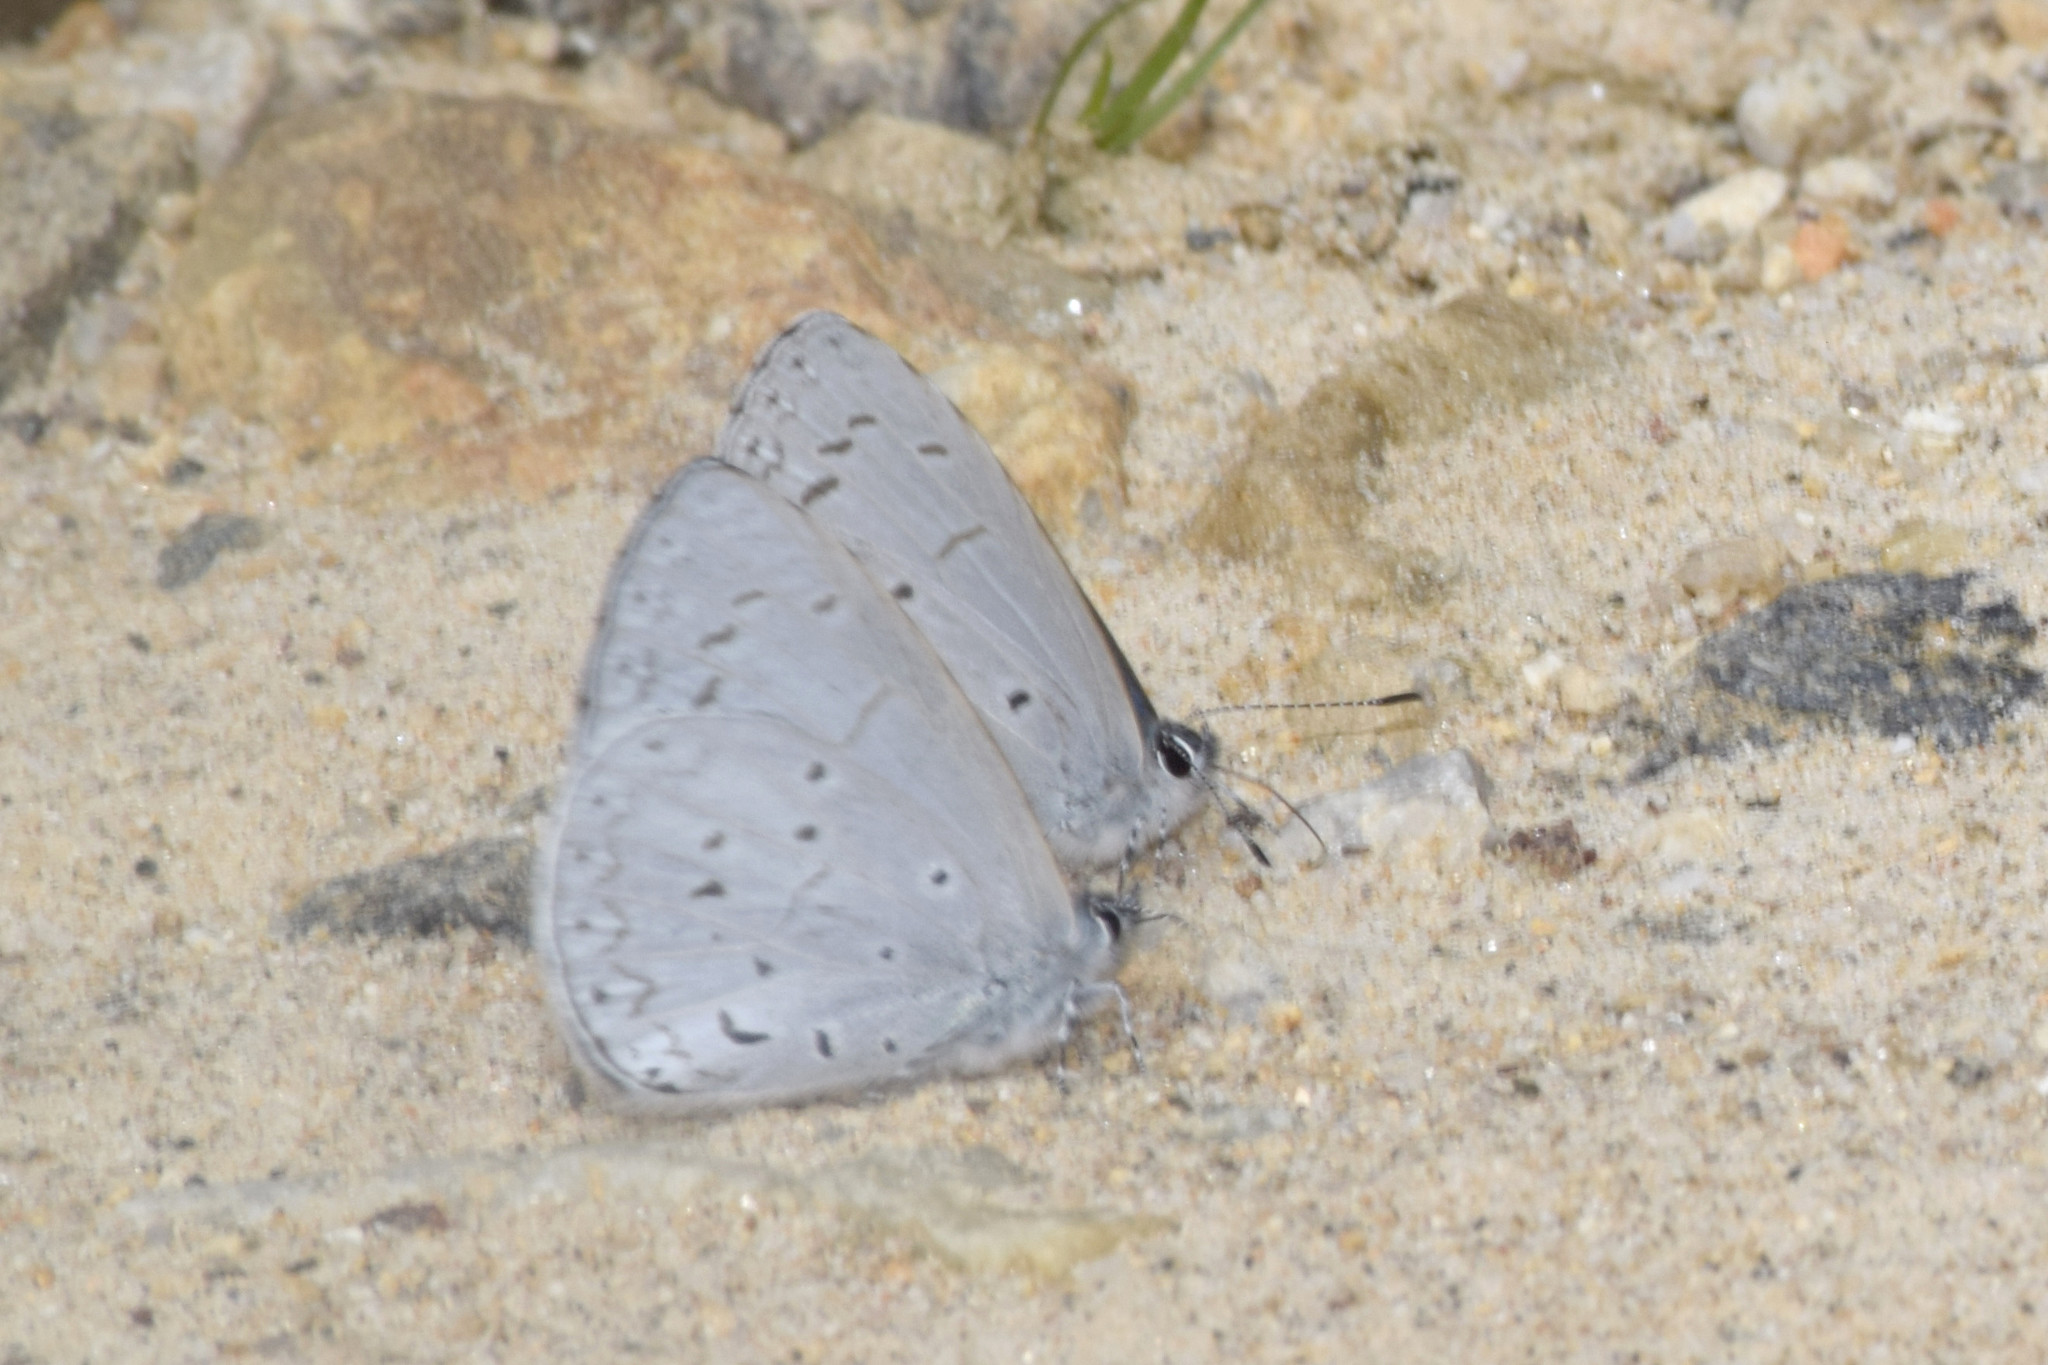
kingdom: Animalia
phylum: Arthropoda
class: Insecta
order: Lepidoptera
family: Lycaenidae
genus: Udara
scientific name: Udara dilectus
